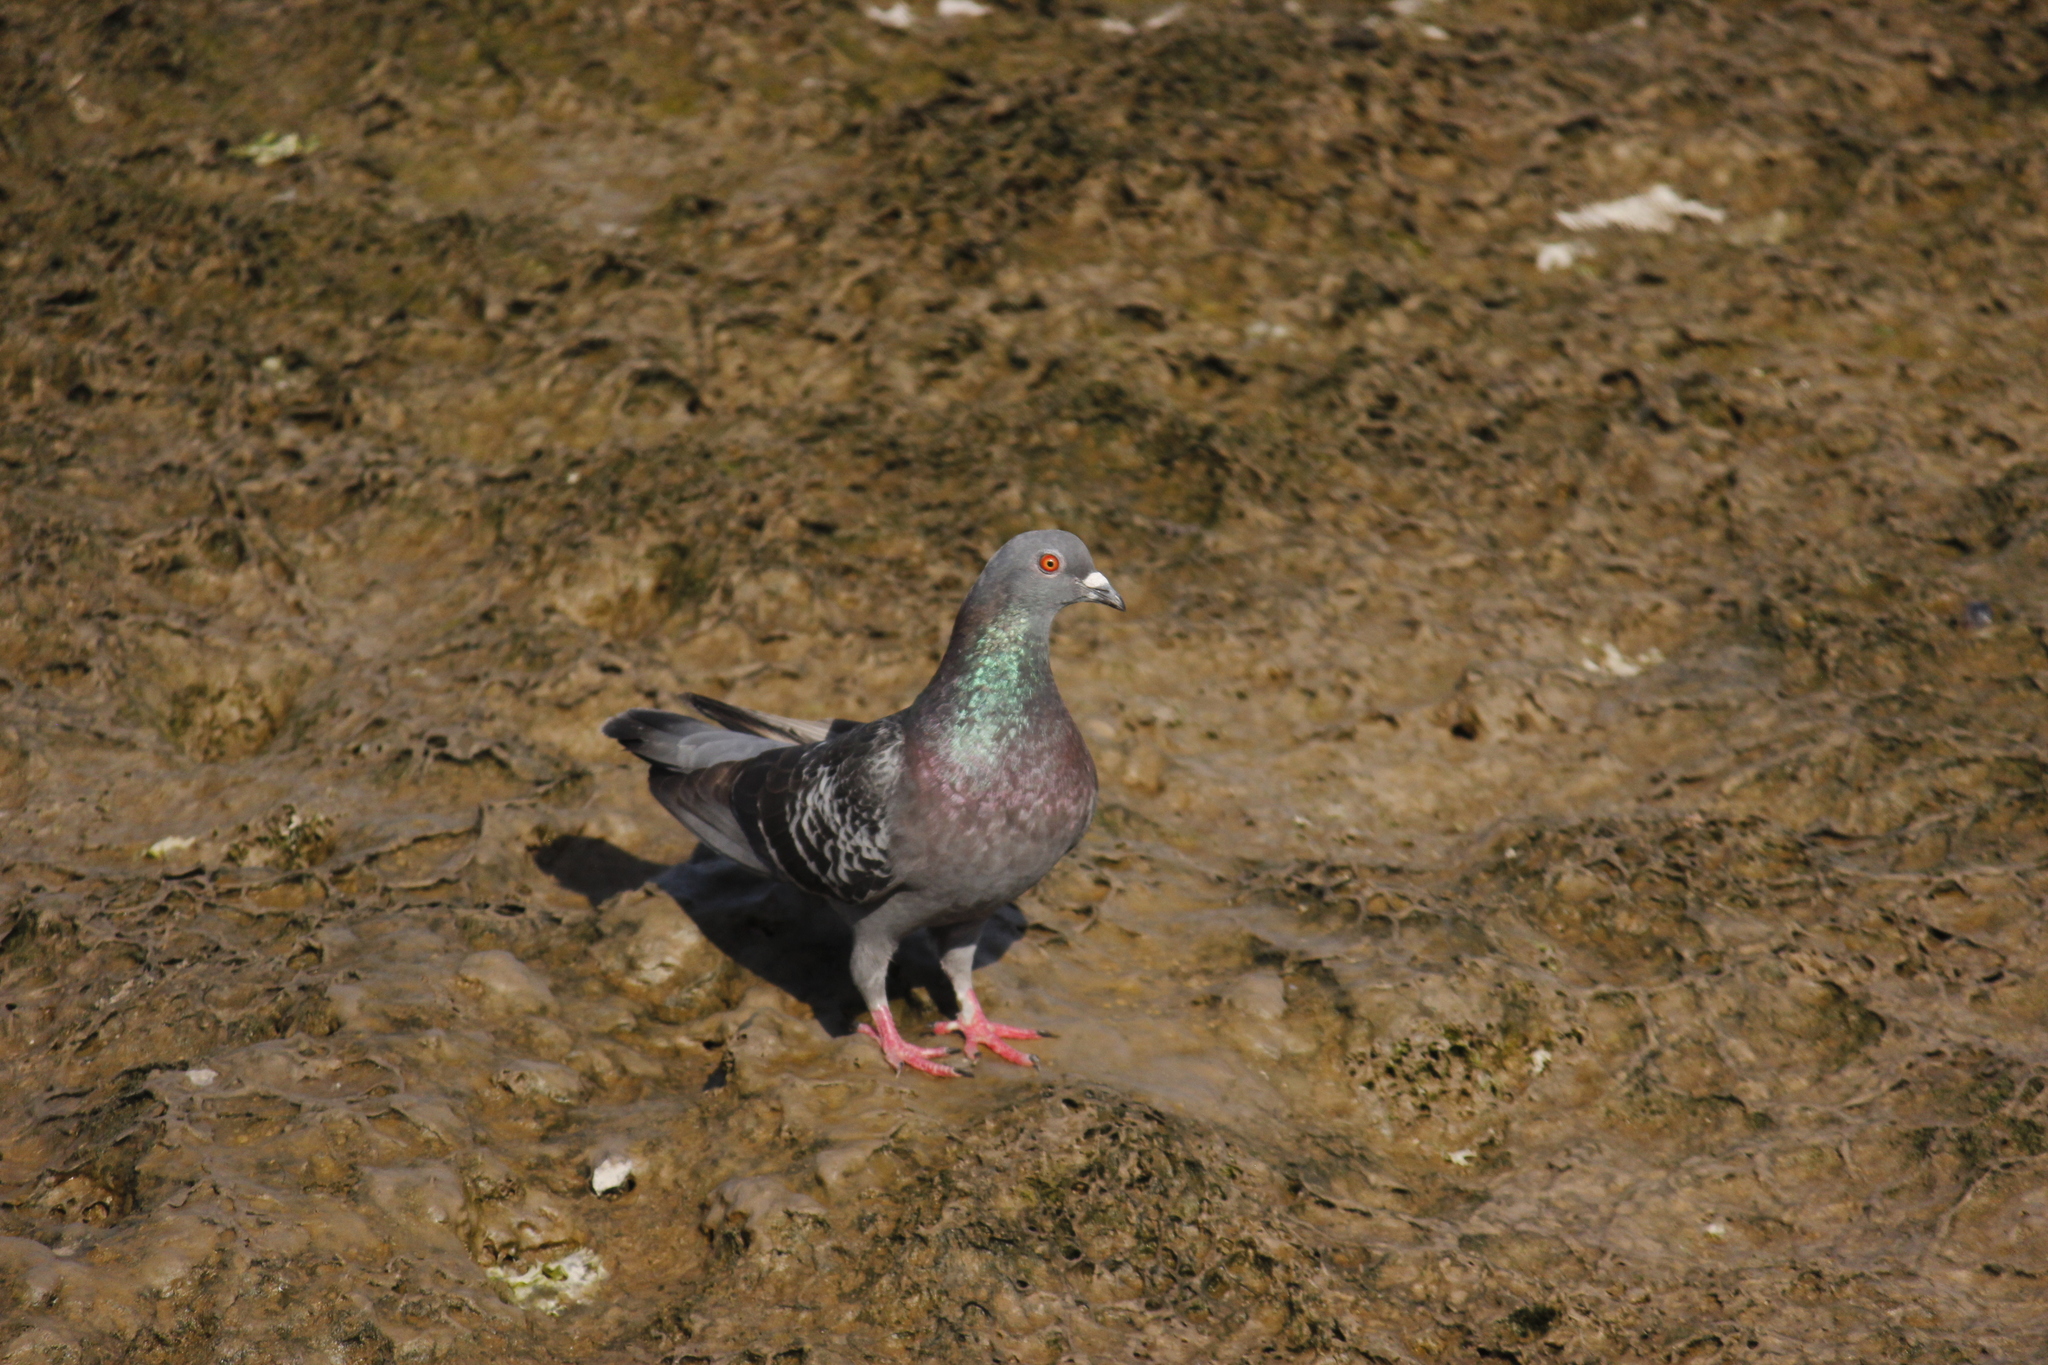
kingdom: Animalia
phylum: Chordata
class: Aves
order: Columbiformes
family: Columbidae
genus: Columba
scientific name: Columba livia
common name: Rock pigeon
